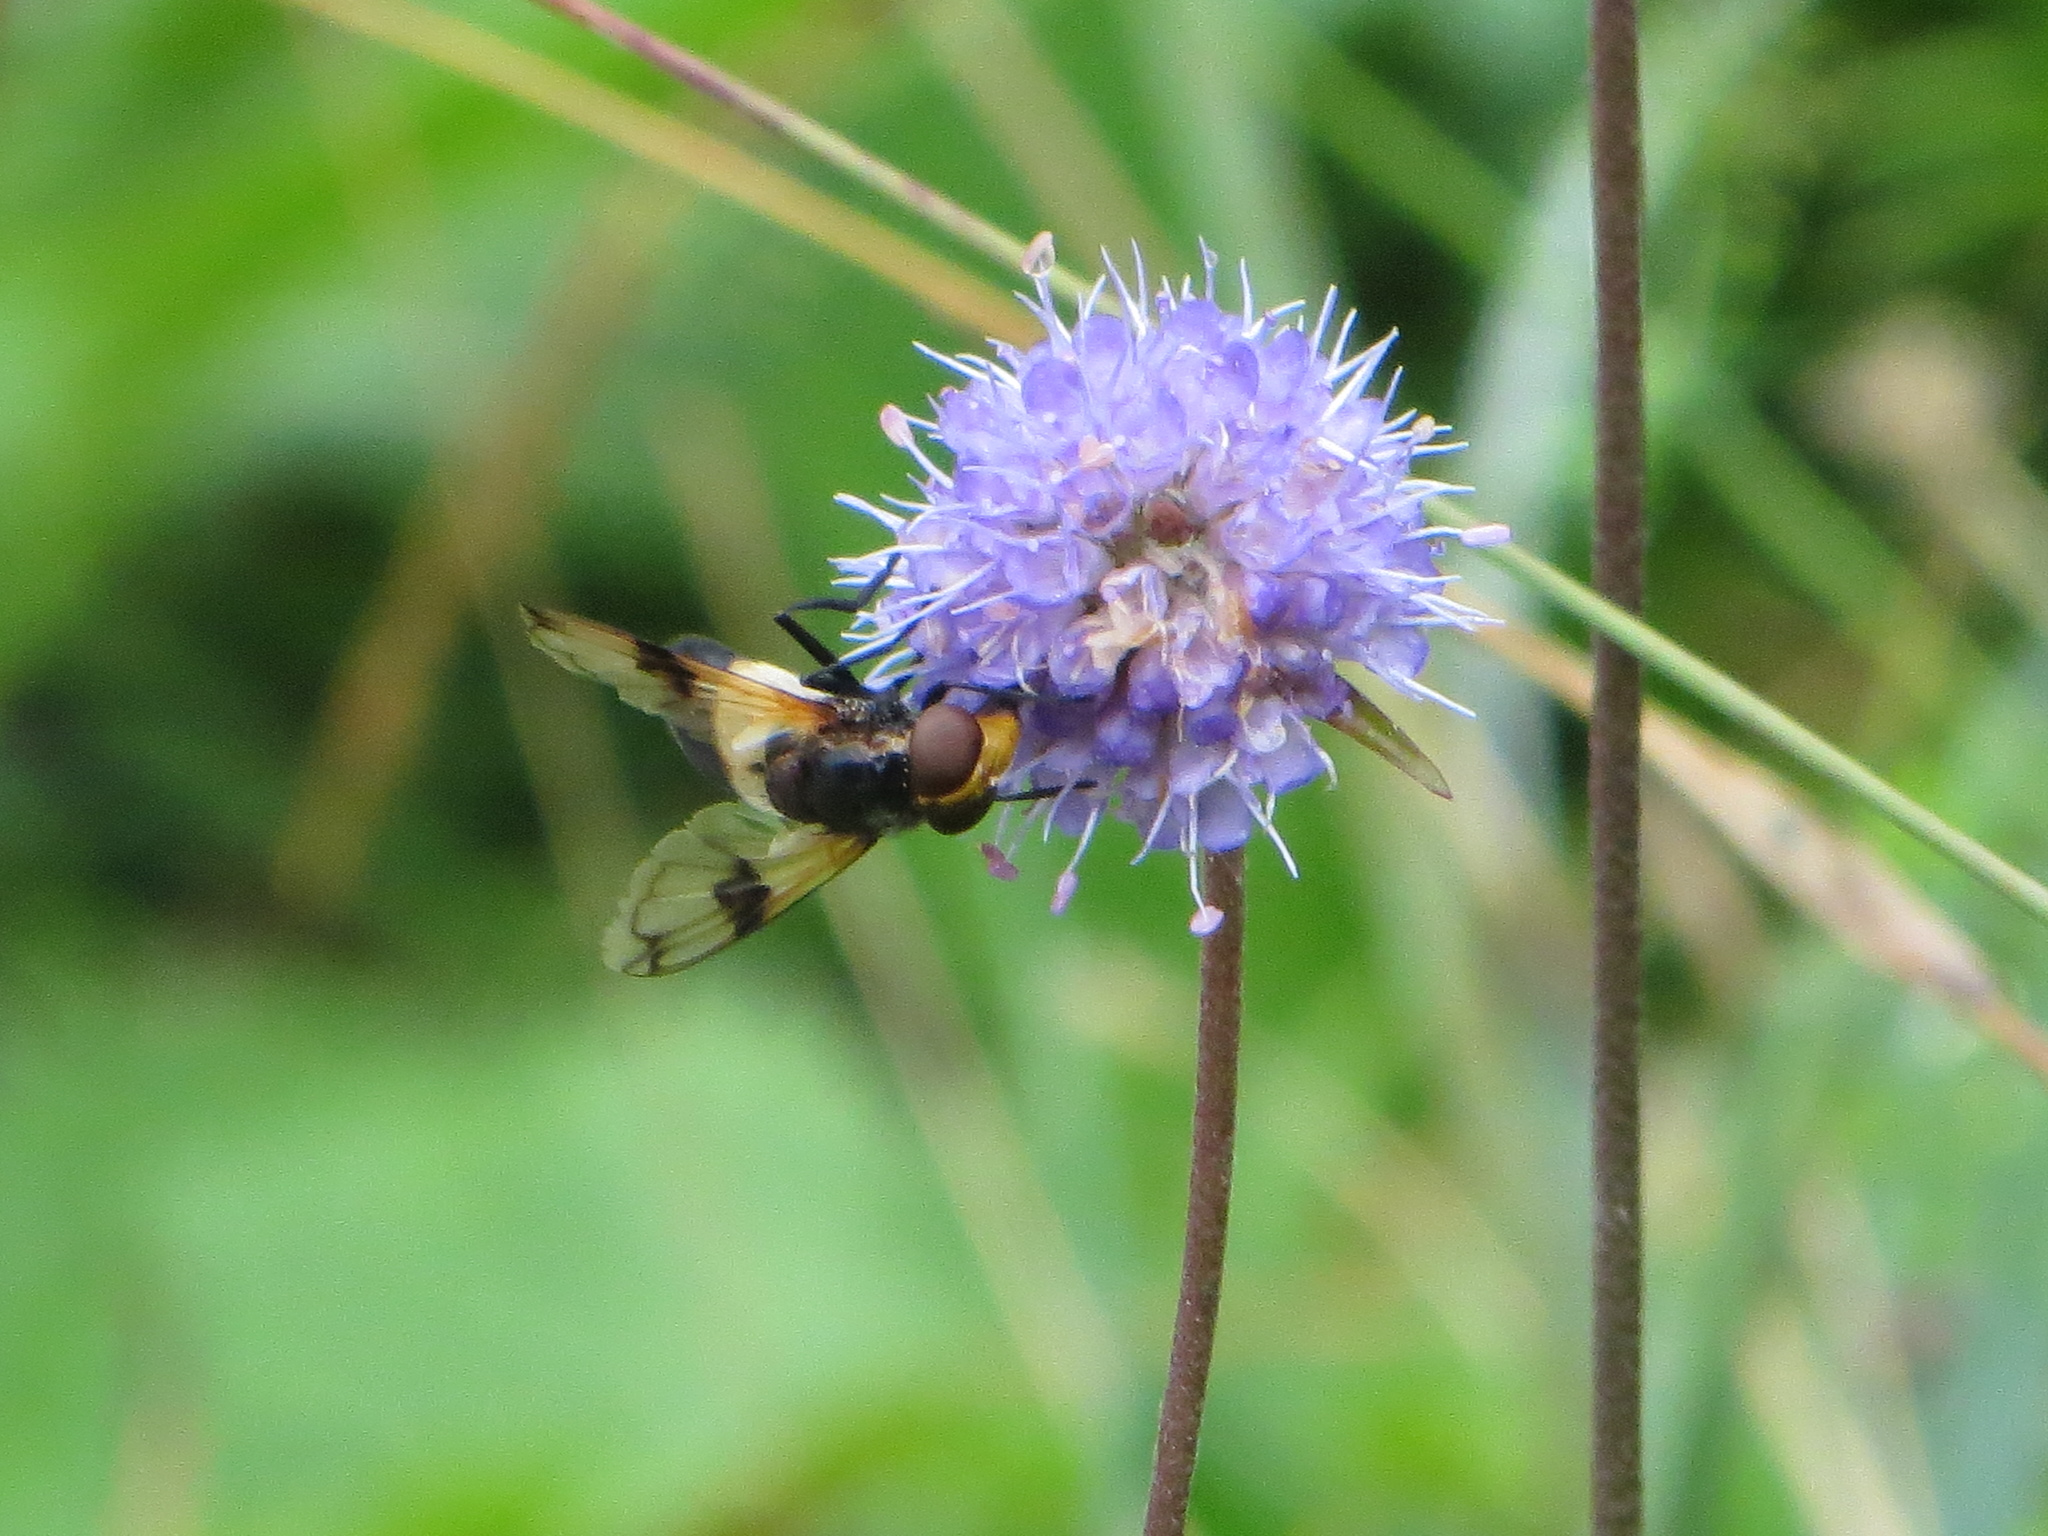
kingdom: Animalia
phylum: Arthropoda
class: Insecta
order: Diptera
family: Syrphidae
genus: Volucella
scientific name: Volucella pellucens
